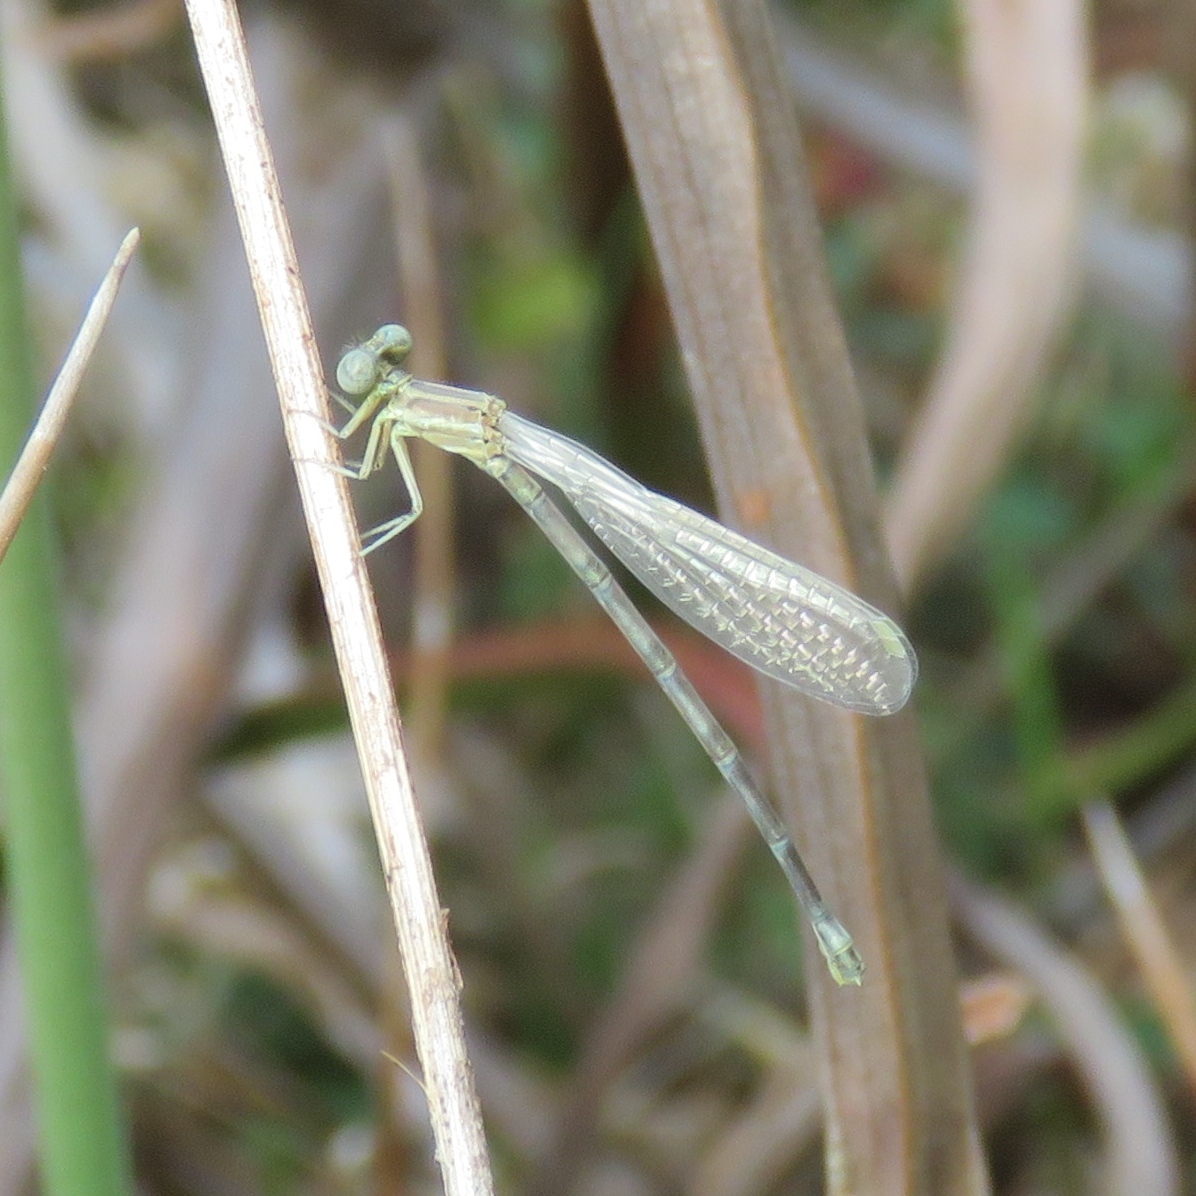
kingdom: Animalia
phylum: Arthropoda
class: Insecta
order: Odonata
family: Coenagrionidae
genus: Argia
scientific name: Argia bipunctulata
